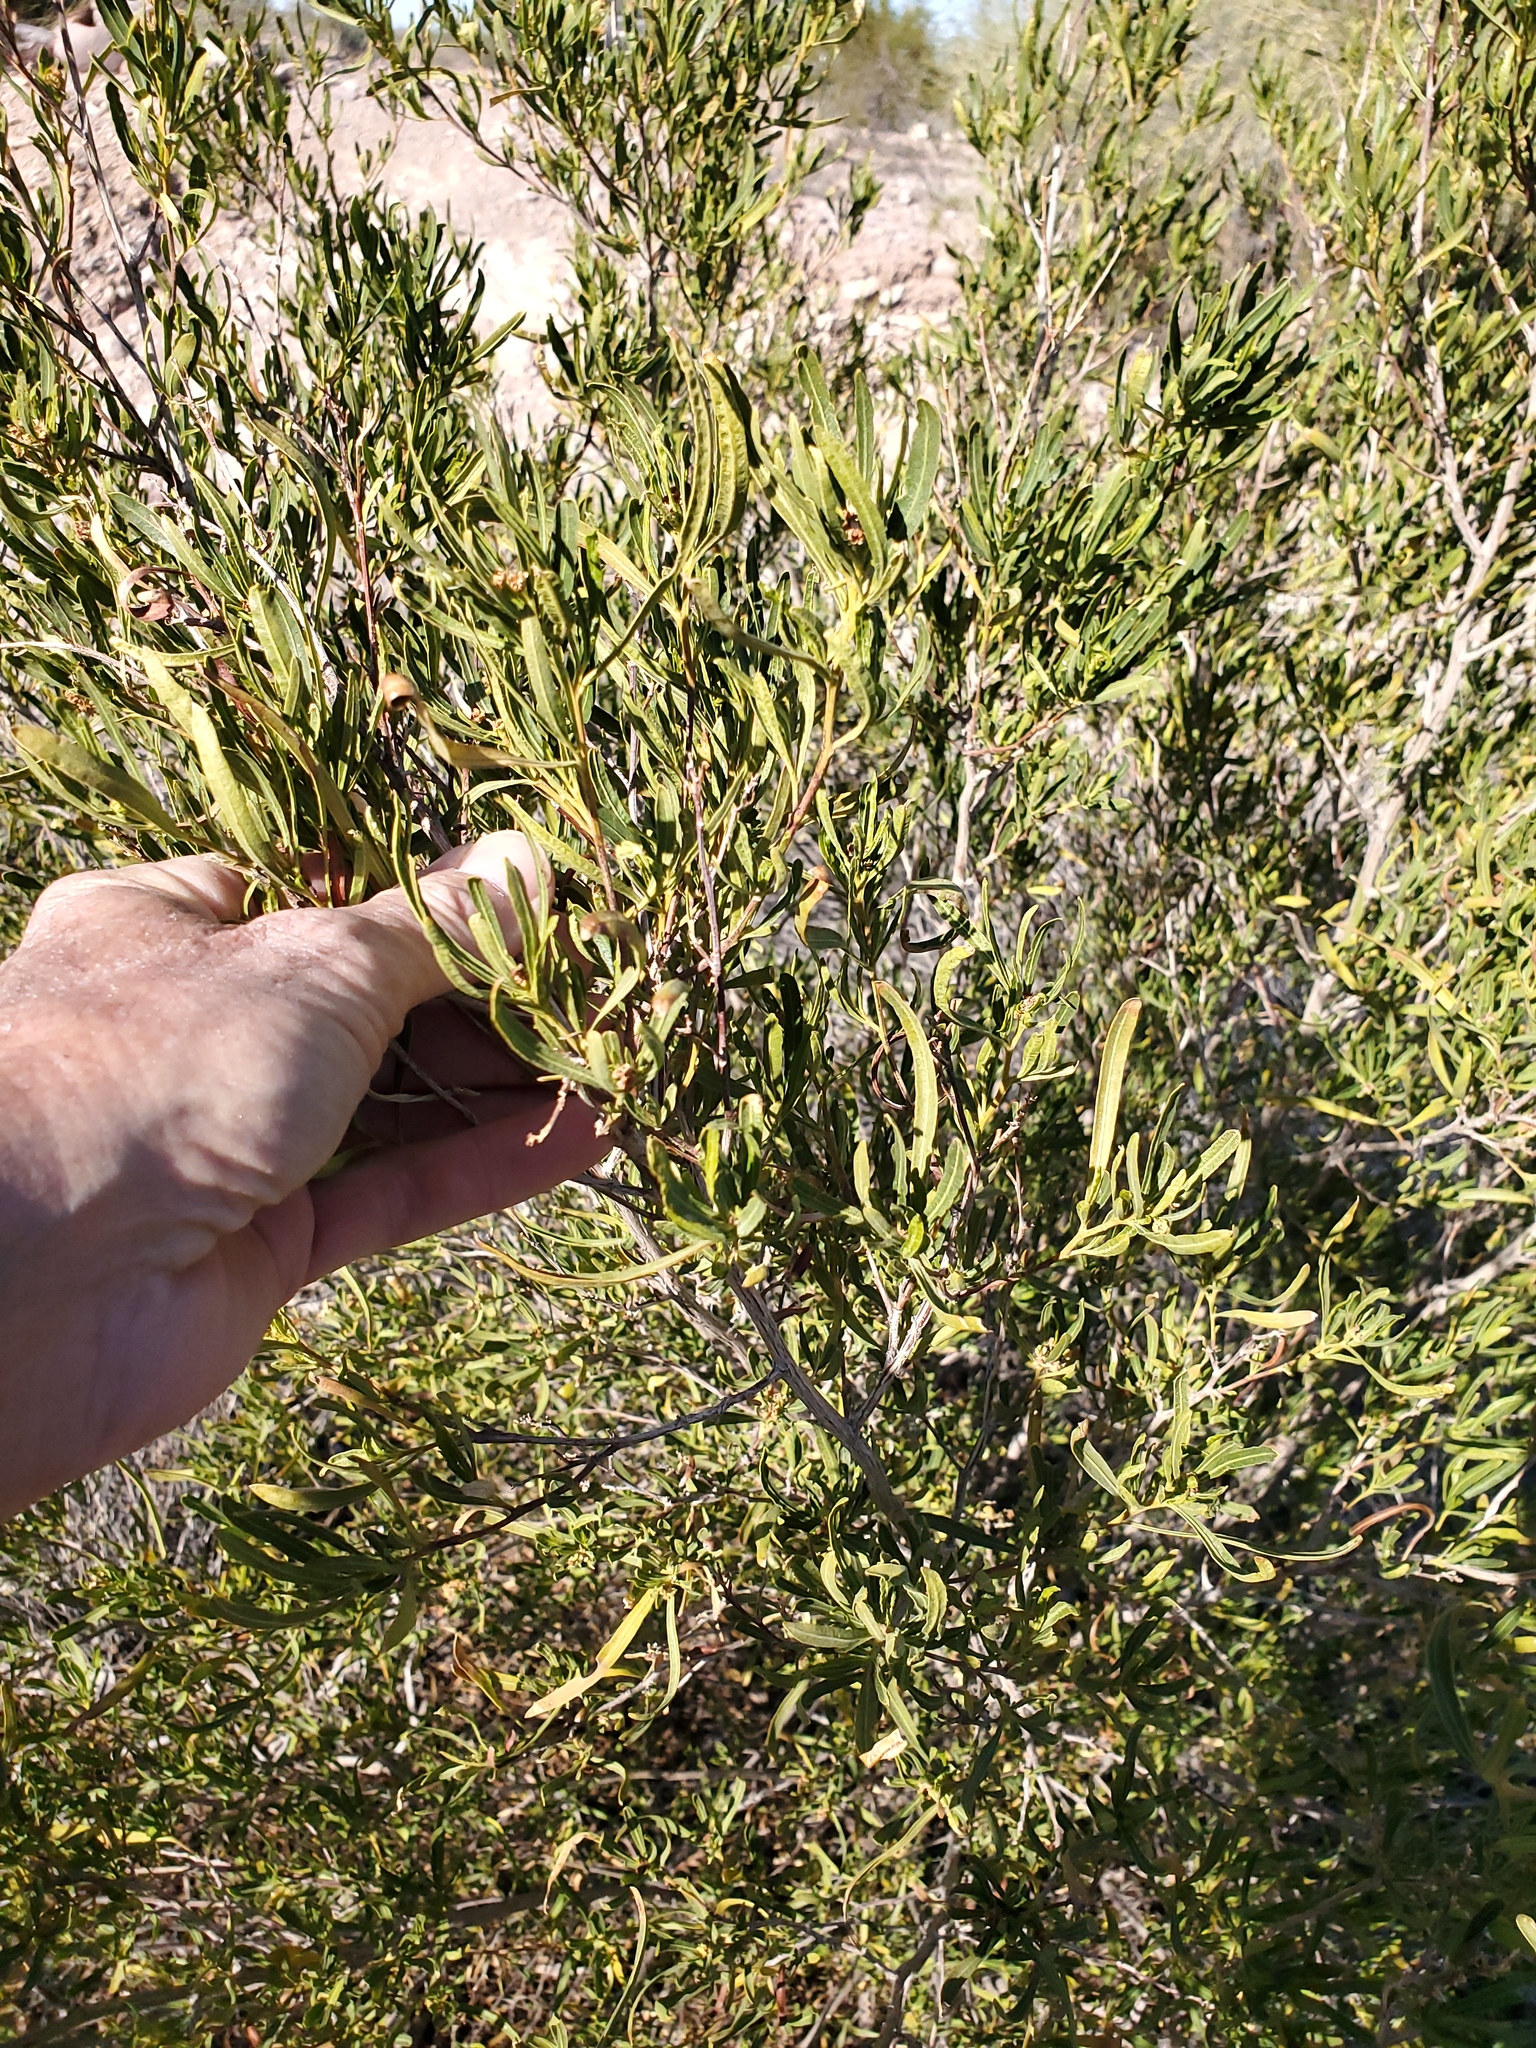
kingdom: Plantae
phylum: Tracheophyta
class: Magnoliopsida
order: Sapindales
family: Sapindaceae
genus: Dodonaea
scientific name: Dodonaea viscosa
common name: Hopbush
